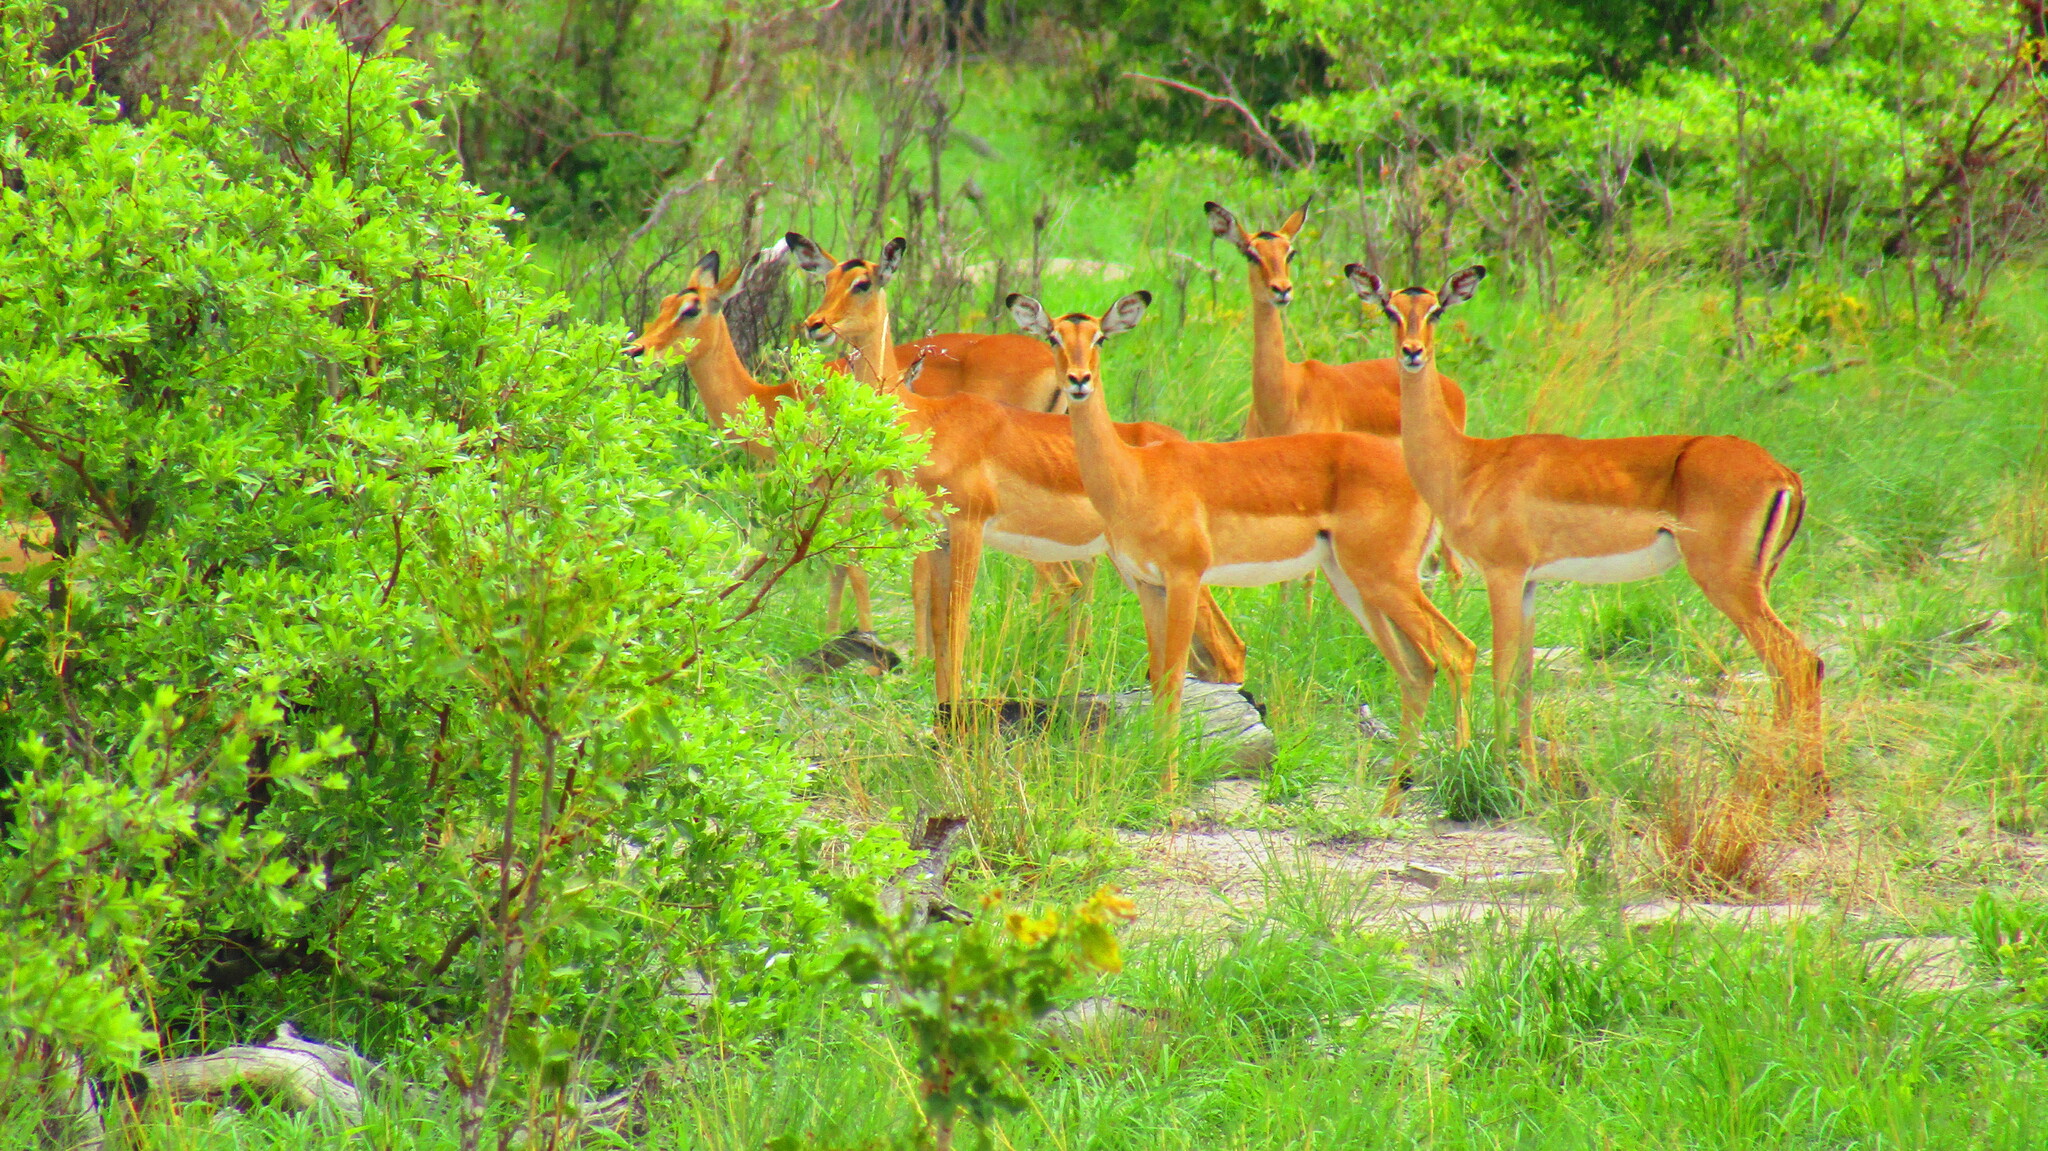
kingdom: Animalia
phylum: Chordata
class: Mammalia
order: Artiodactyla
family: Bovidae
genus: Aepyceros
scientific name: Aepyceros melampus
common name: Impala
